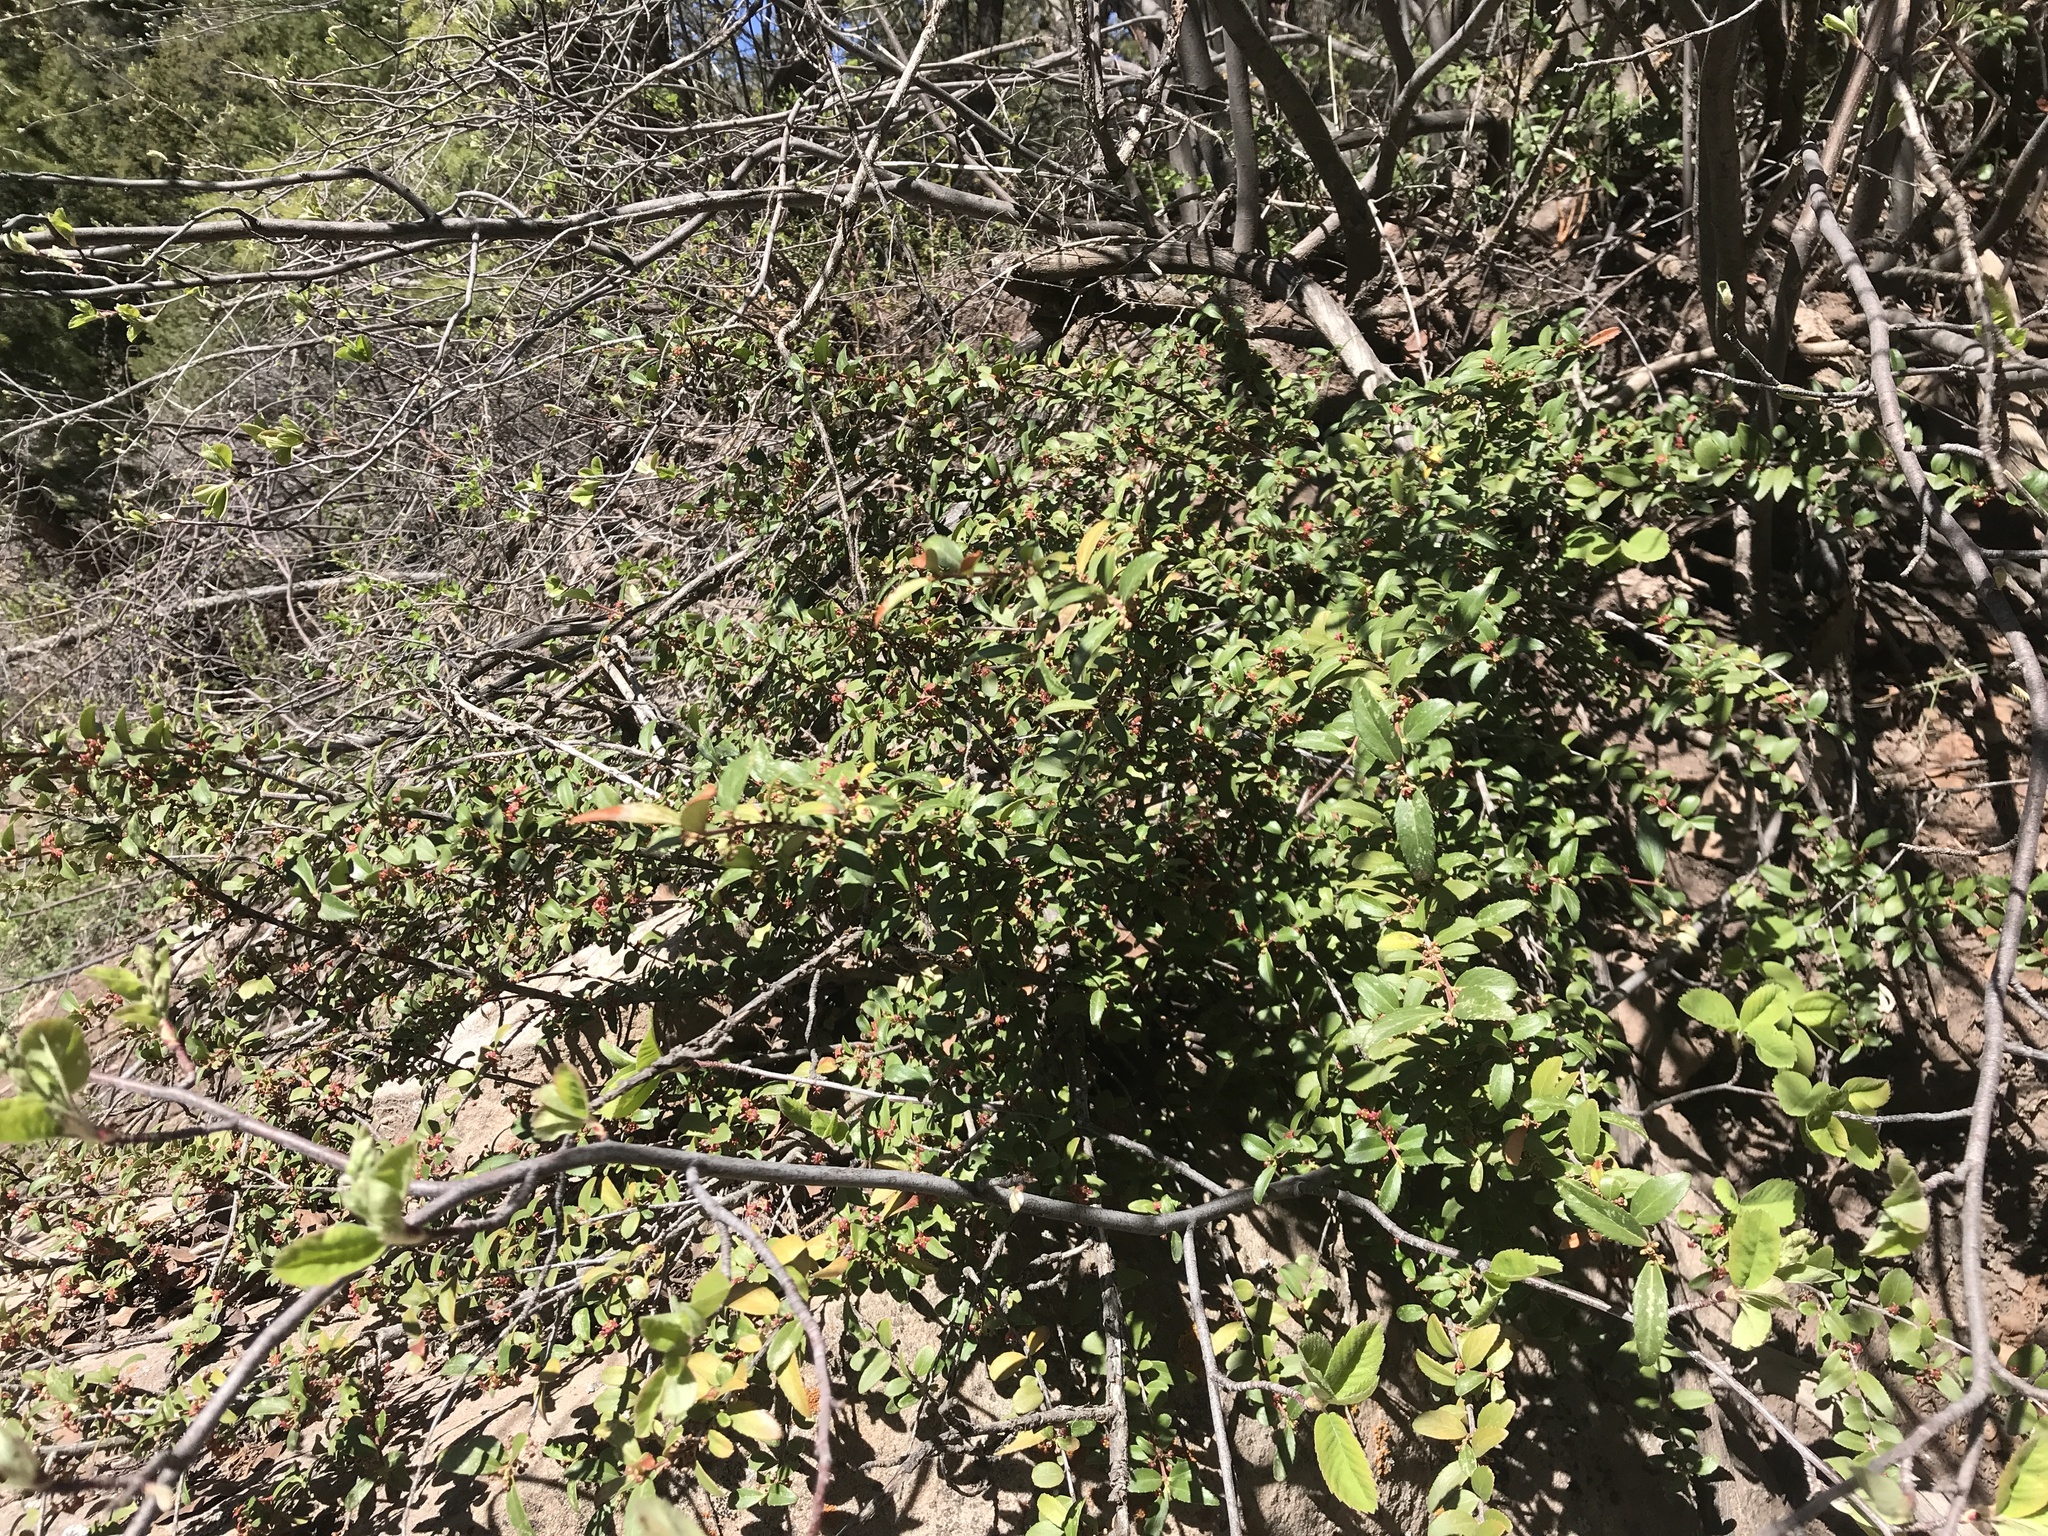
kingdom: Plantae
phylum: Tracheophyta
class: Magnoliopsida
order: Celastrales
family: Celastraceae
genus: Paxistima
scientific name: Paxistima myrsinites
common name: Mountain-lover
